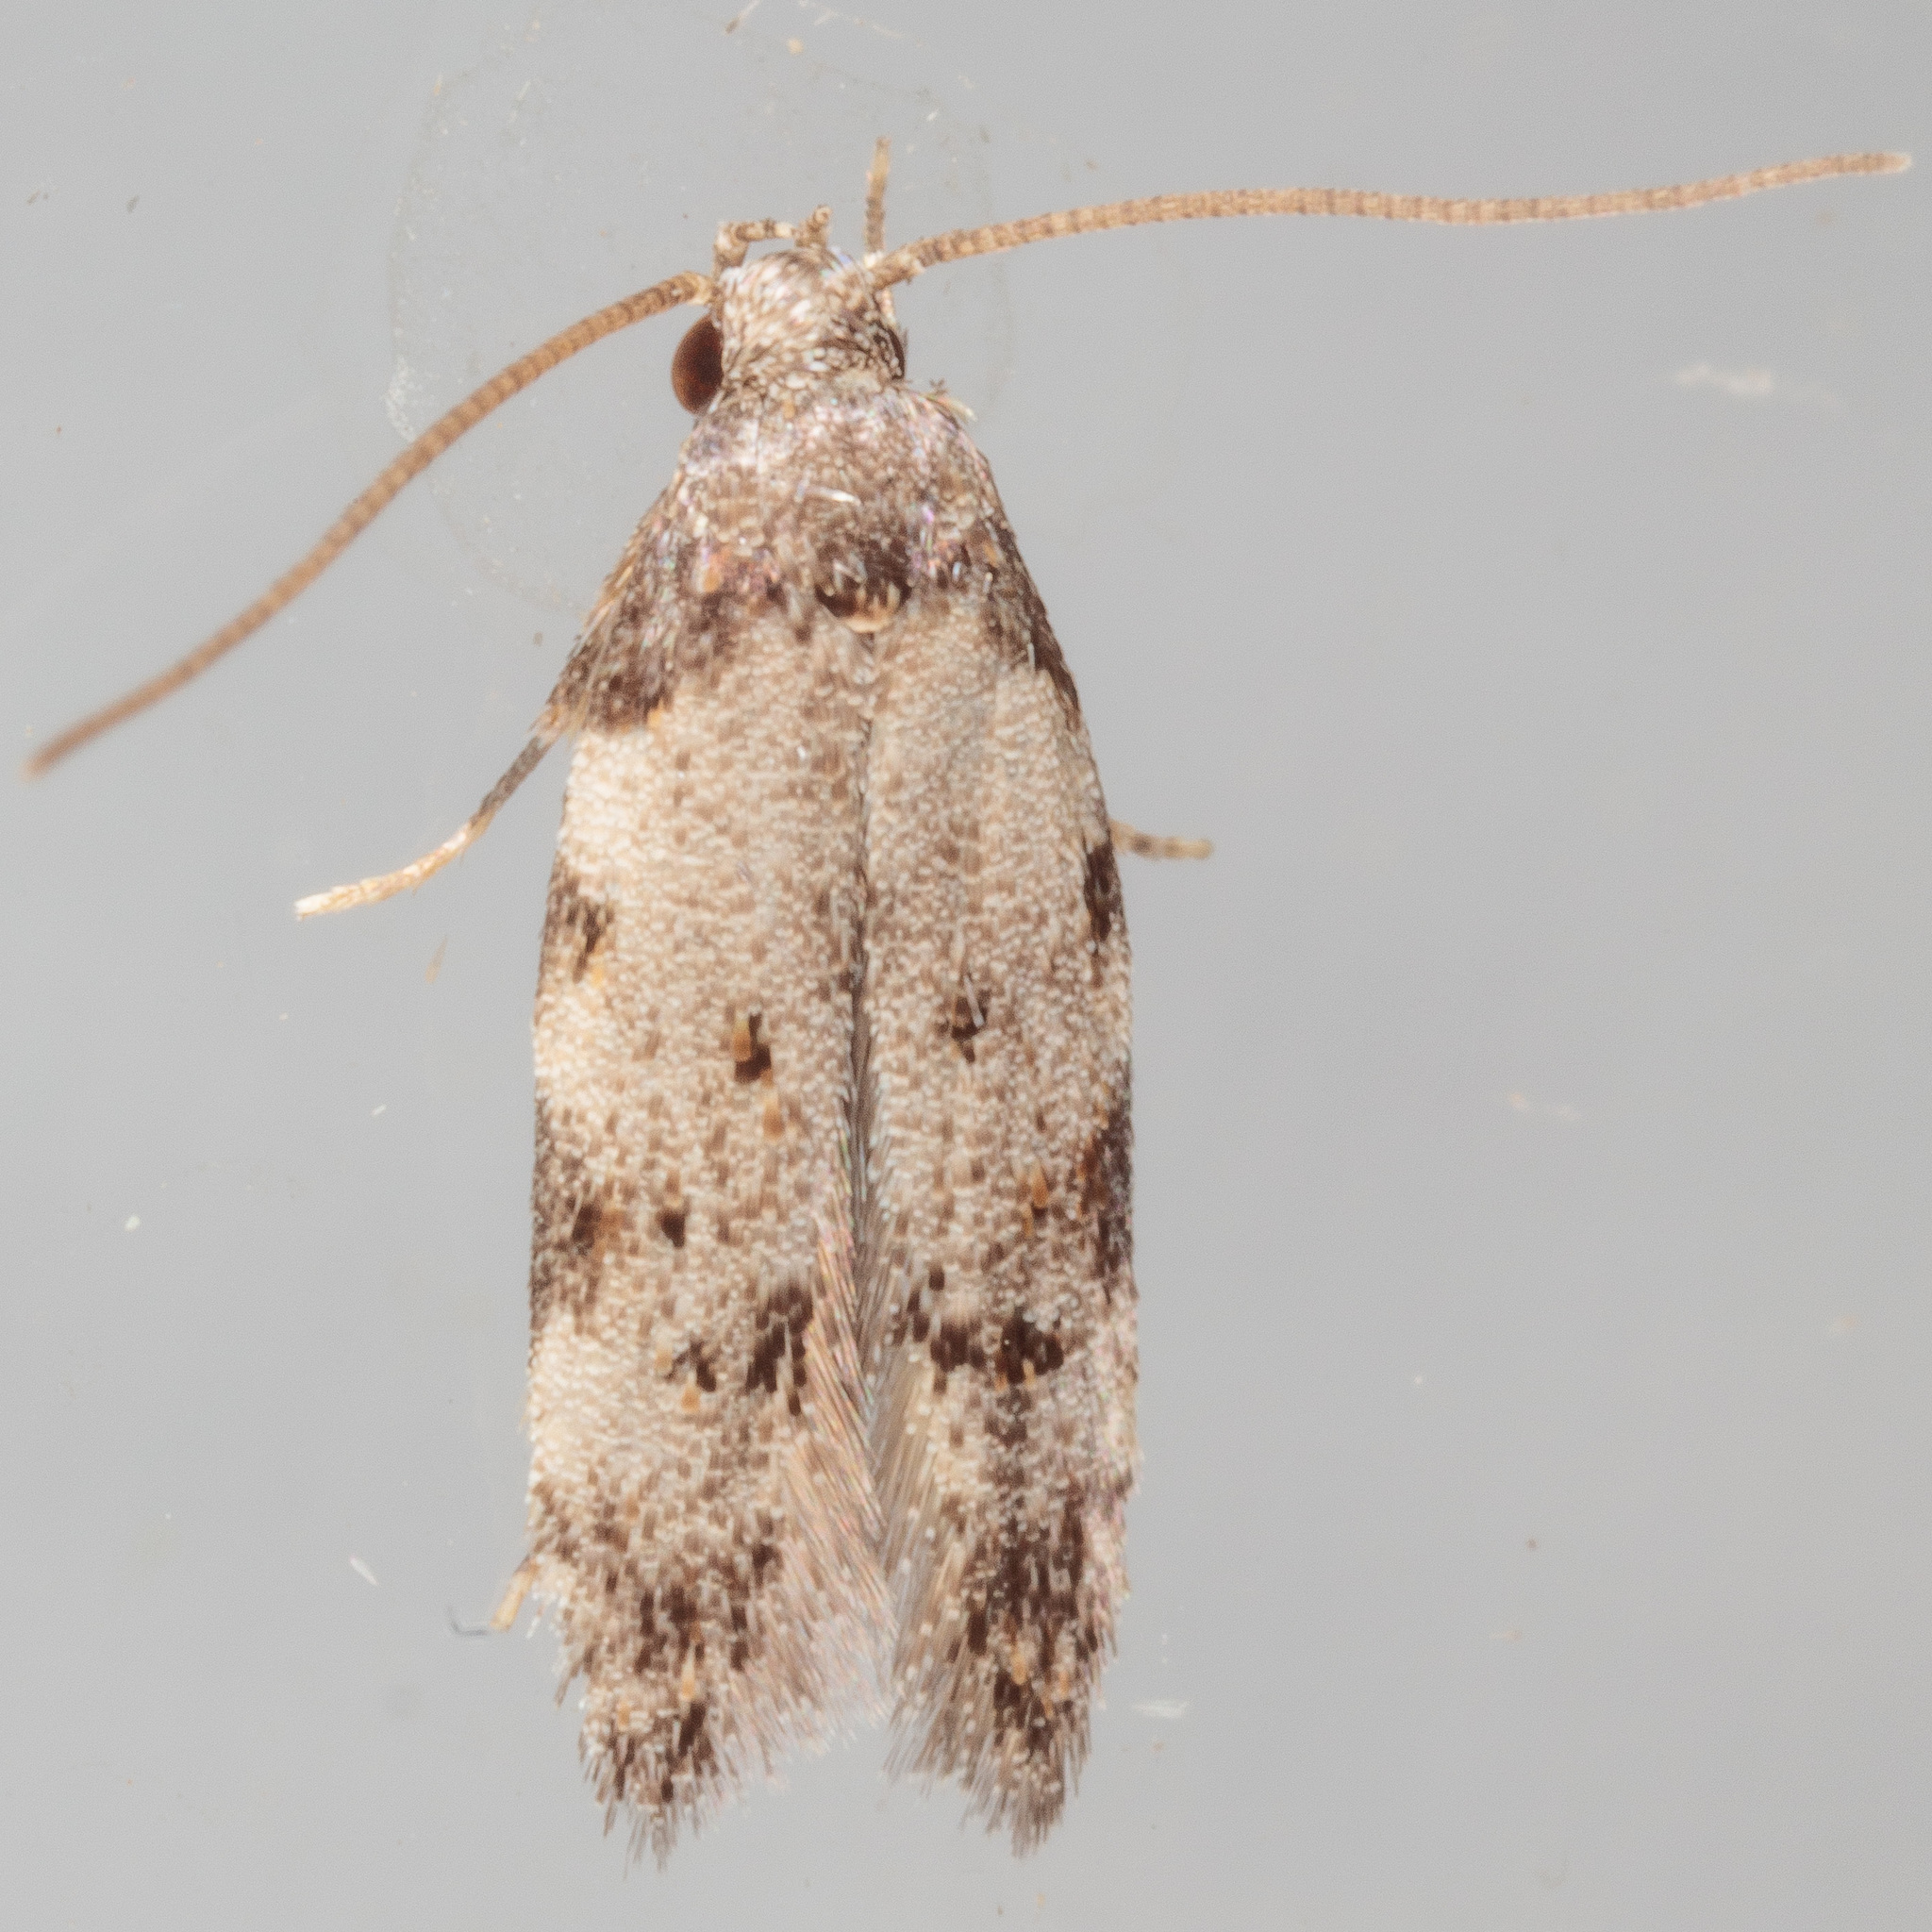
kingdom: Animalia
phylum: Arthropoda
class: Insecta
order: Lepidoptera
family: Autostichidae
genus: Taygete
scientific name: Taygete attributella
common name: Triangle-marked twirler moth
